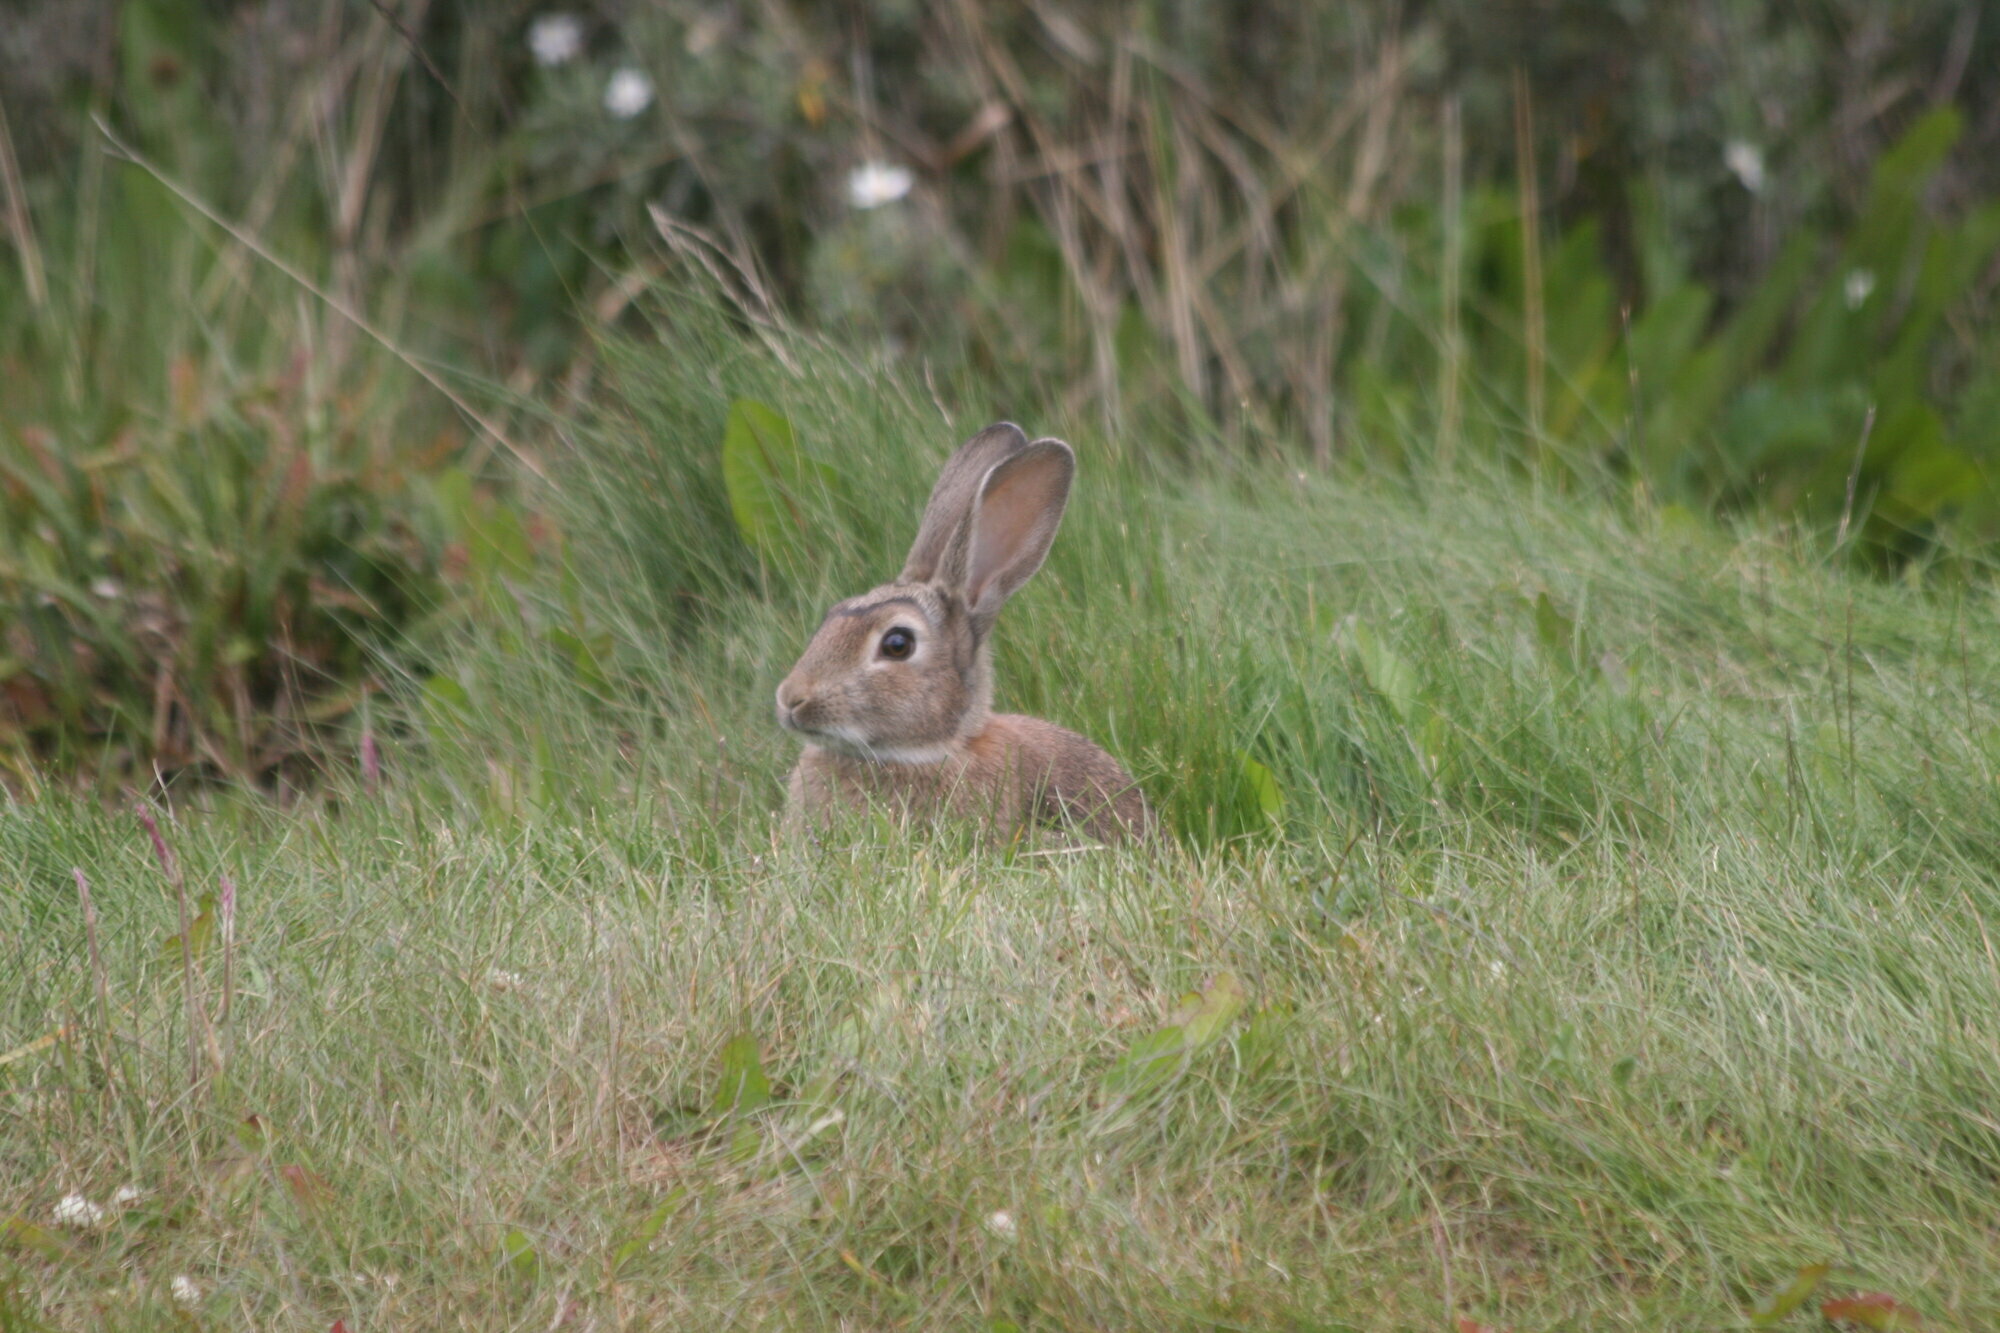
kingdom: Animalia
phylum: Chordata
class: Mammalia
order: Lagomorpha
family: Leporidae
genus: Oryctolagus
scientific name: Oryctolagus cuniculus
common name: European rabbit
